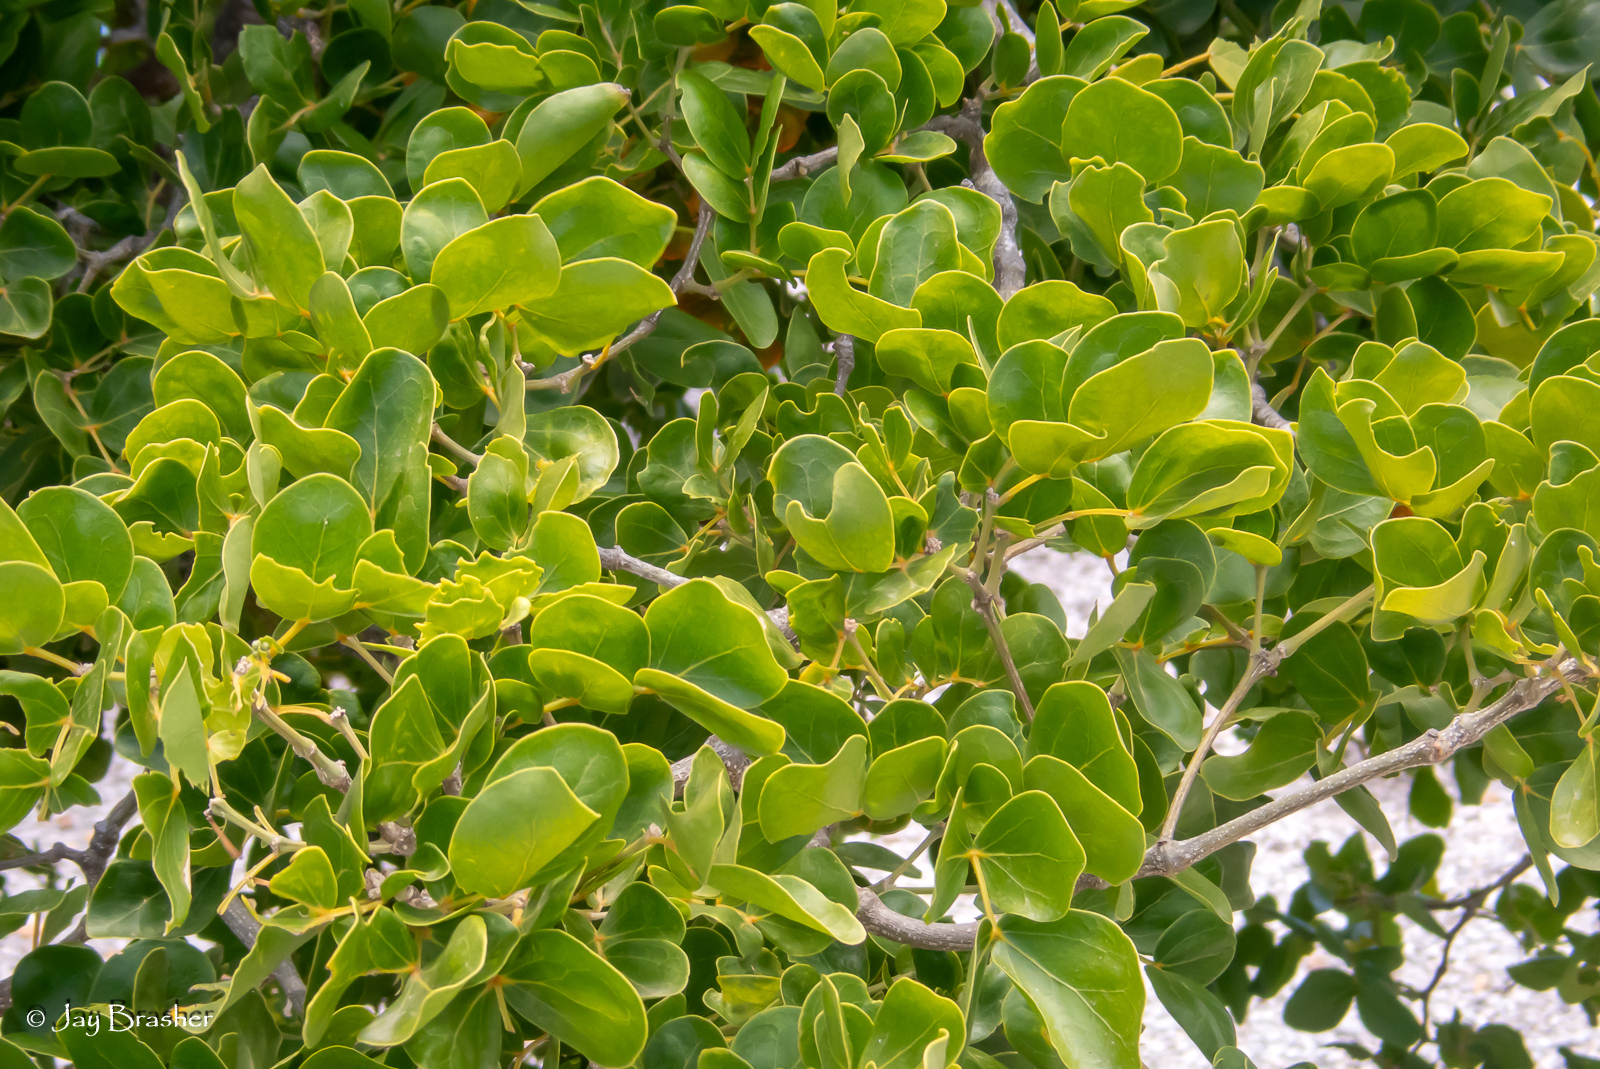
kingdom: Plantae
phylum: Tracheophyta
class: Magnoliopsida
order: Zygophyllales
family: Zygophyllaceae
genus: Guaiacum
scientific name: Guaiacum officinale
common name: Lignum vitae
